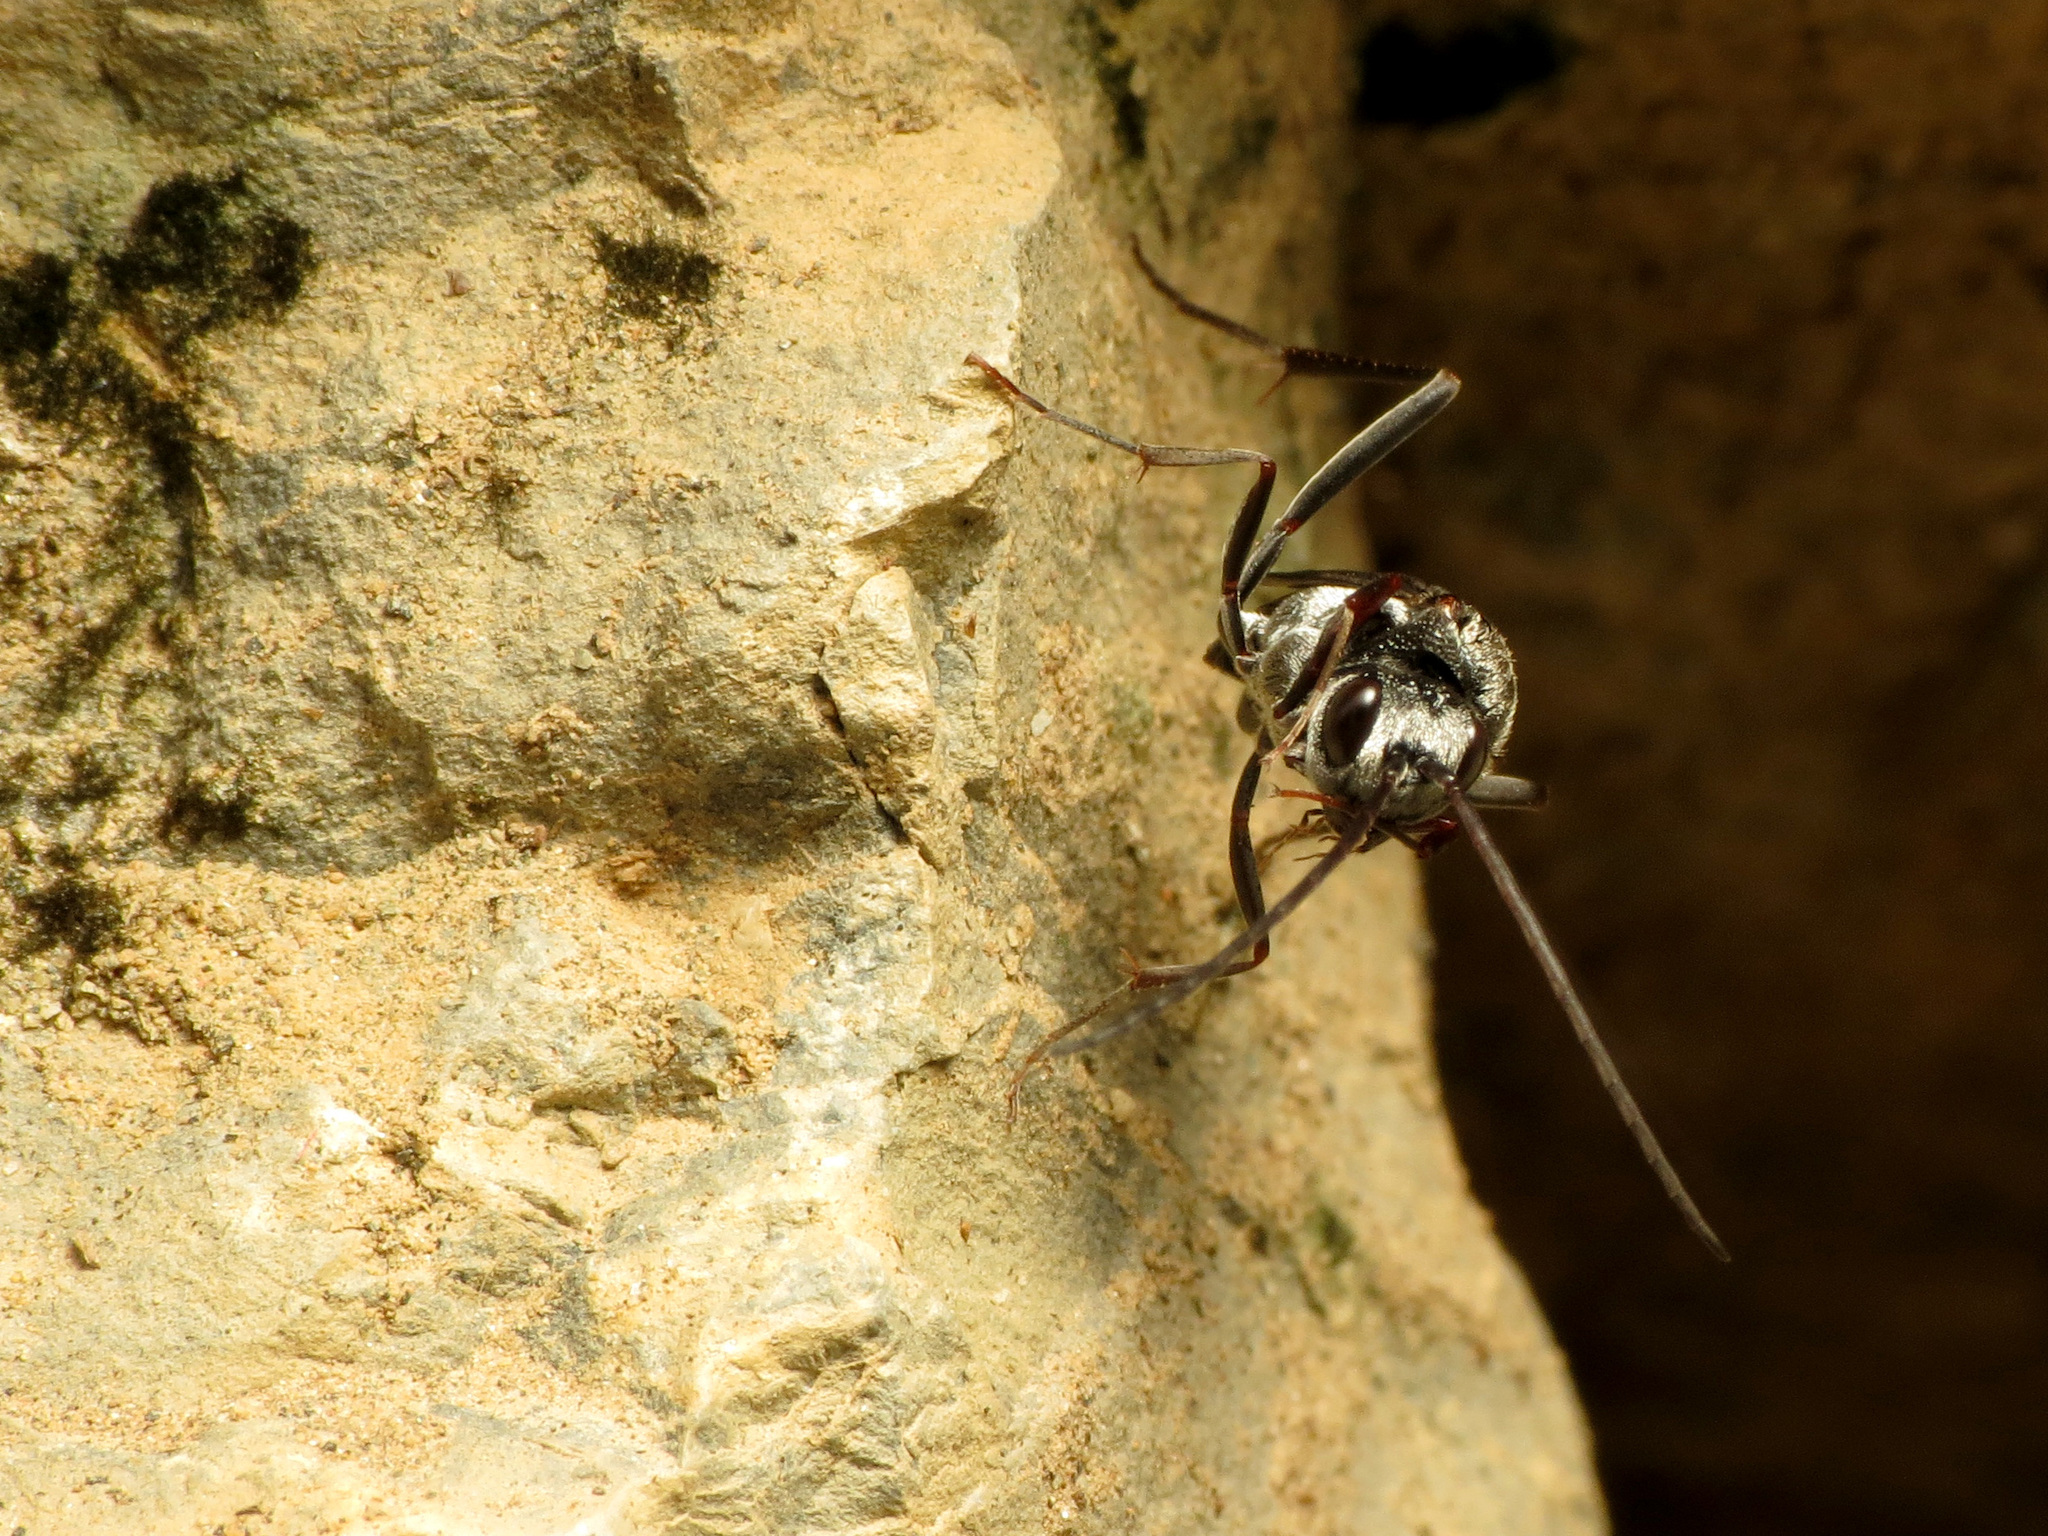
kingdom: Animalia
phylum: Arthropoda
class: Insecta
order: Hymenoptera
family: Evaniidae
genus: Prosevania
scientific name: Prosevania fuscipes
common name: Ensign wasp
